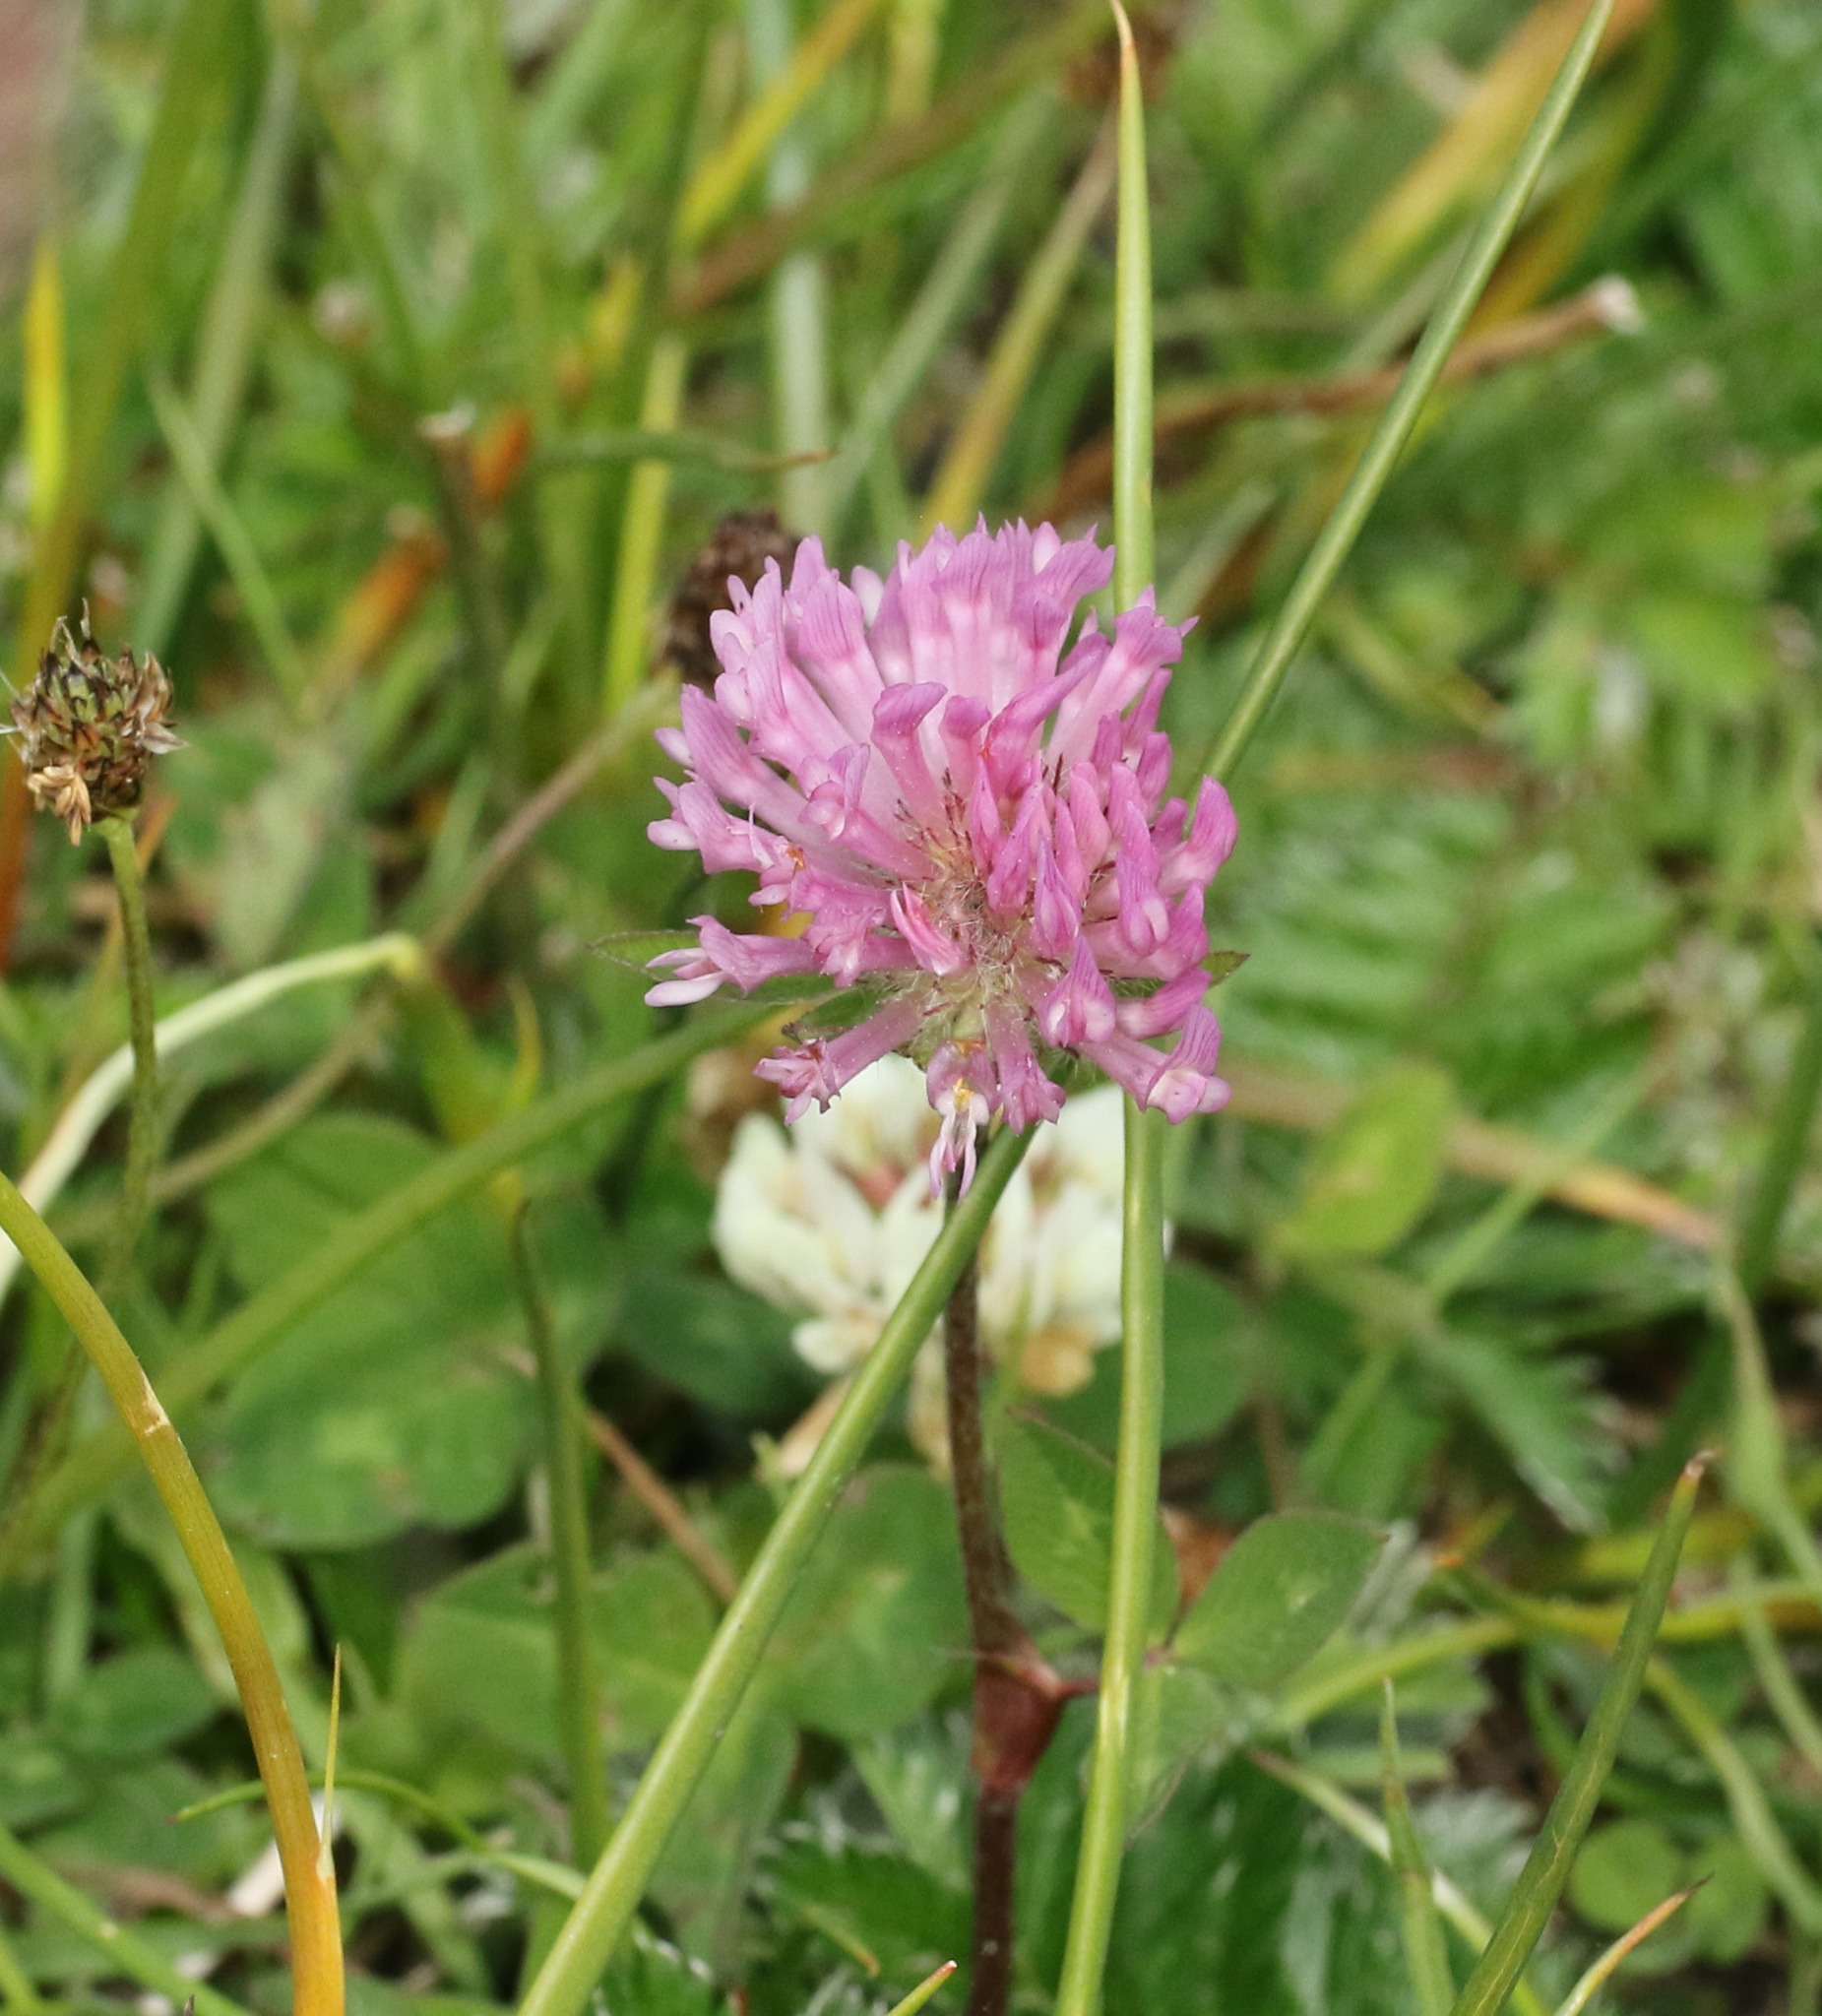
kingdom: Plantae
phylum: Tracheophyta
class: Magnoliopsida
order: Fabales
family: Fabaceae
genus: Trifolium
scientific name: Trifolium pratense
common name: Red clover
